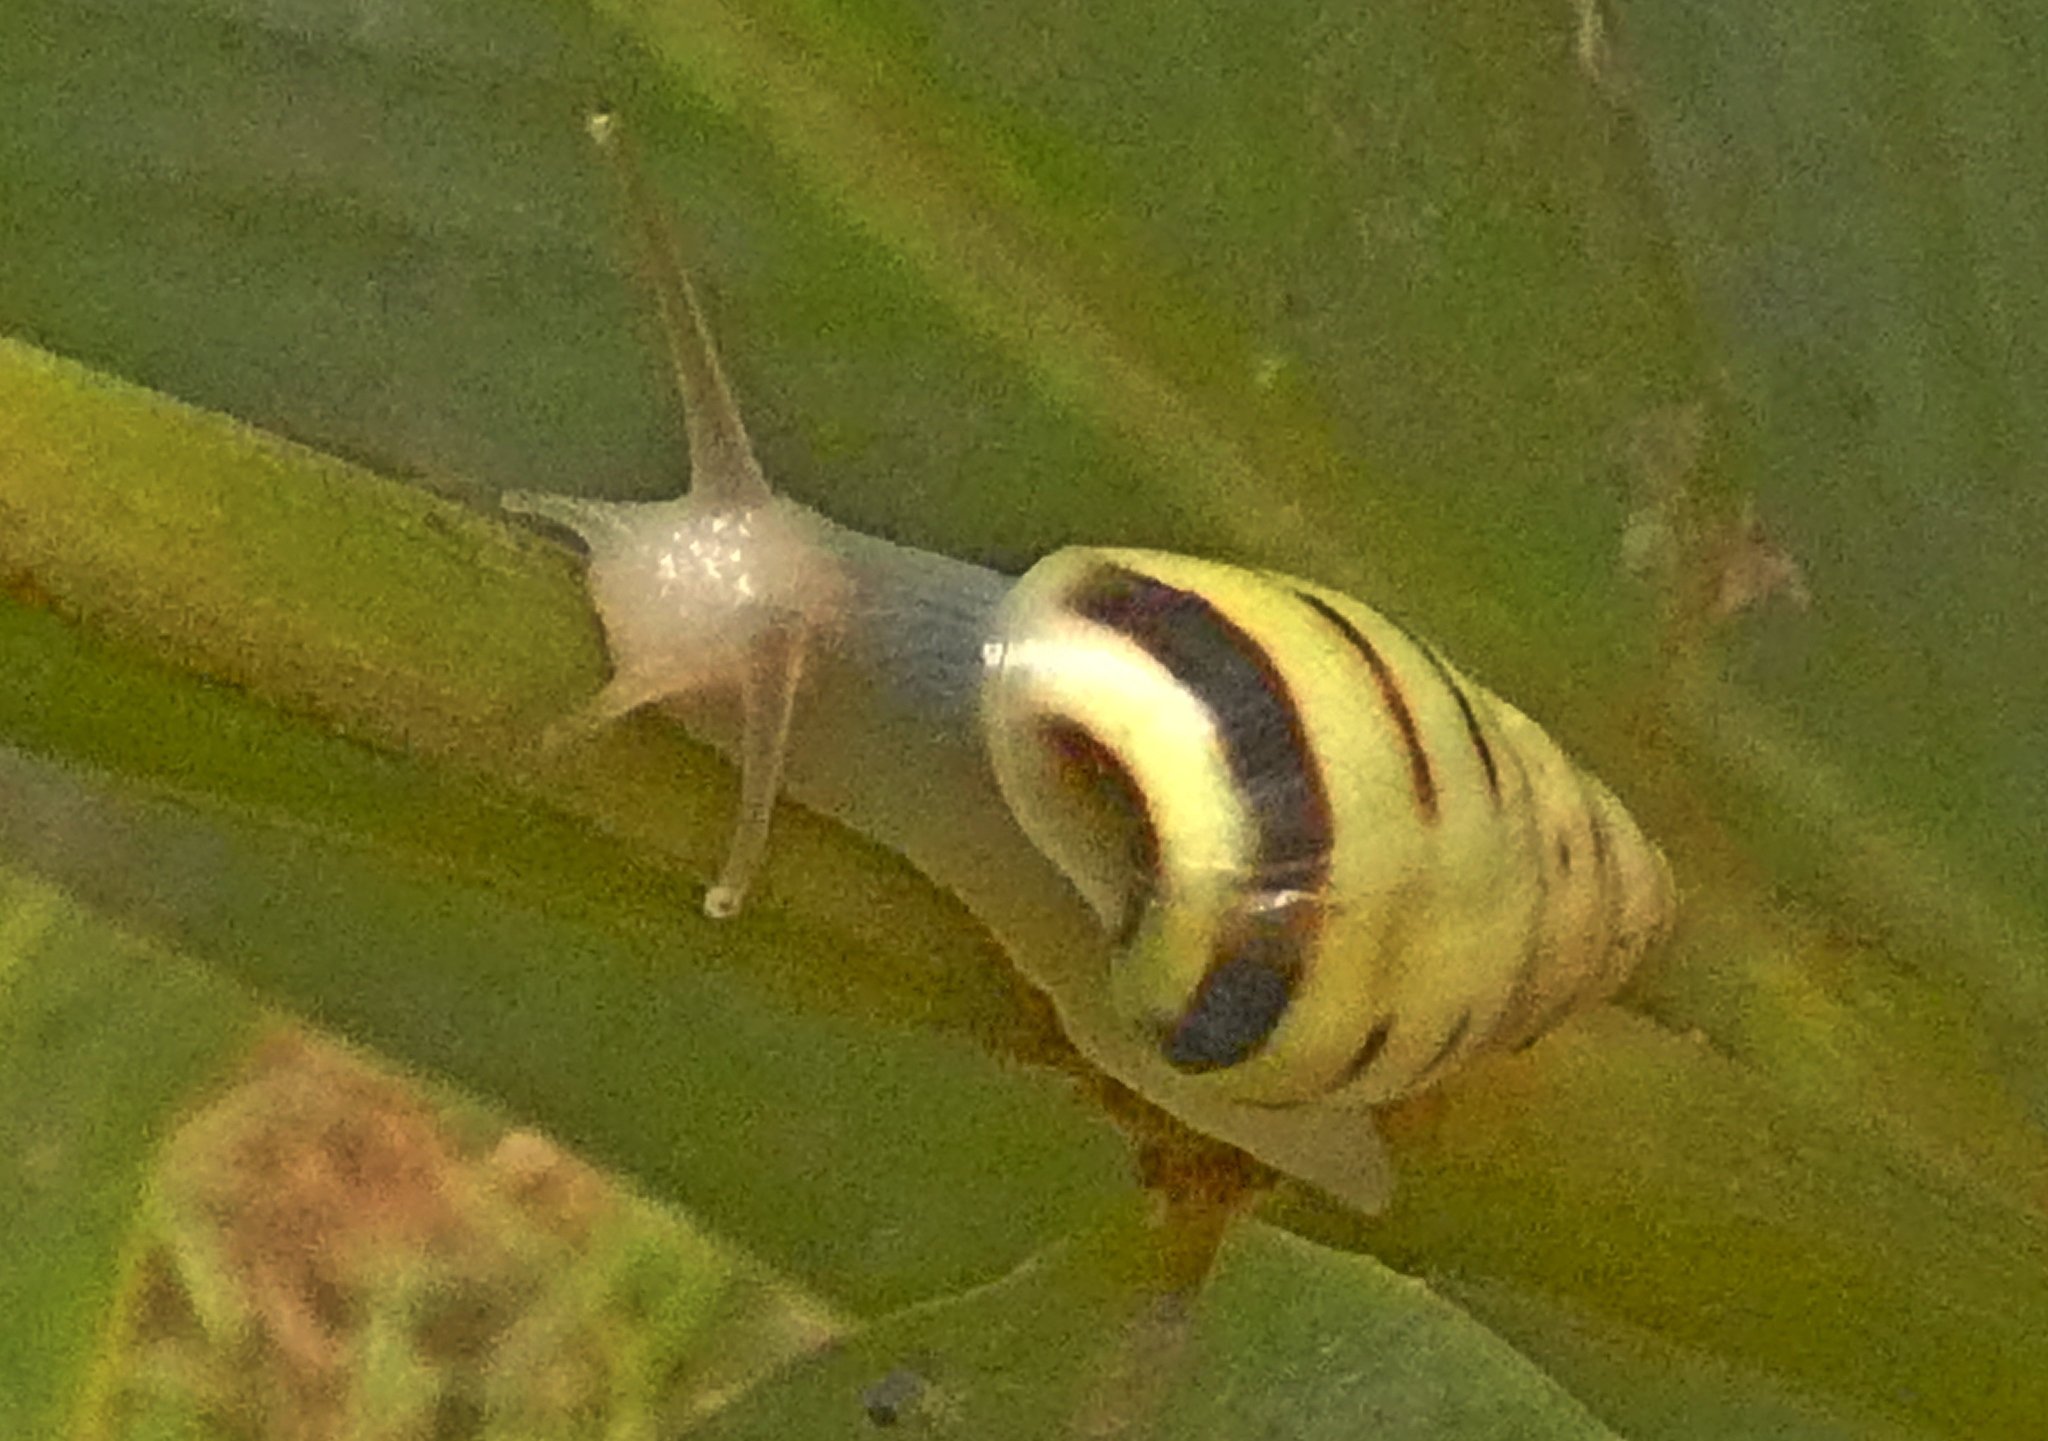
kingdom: Animalia
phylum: Mollusca
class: Gastropoda
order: Stylommatophora
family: Bulimulidae
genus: Drymaeus
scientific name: Drymaeus
